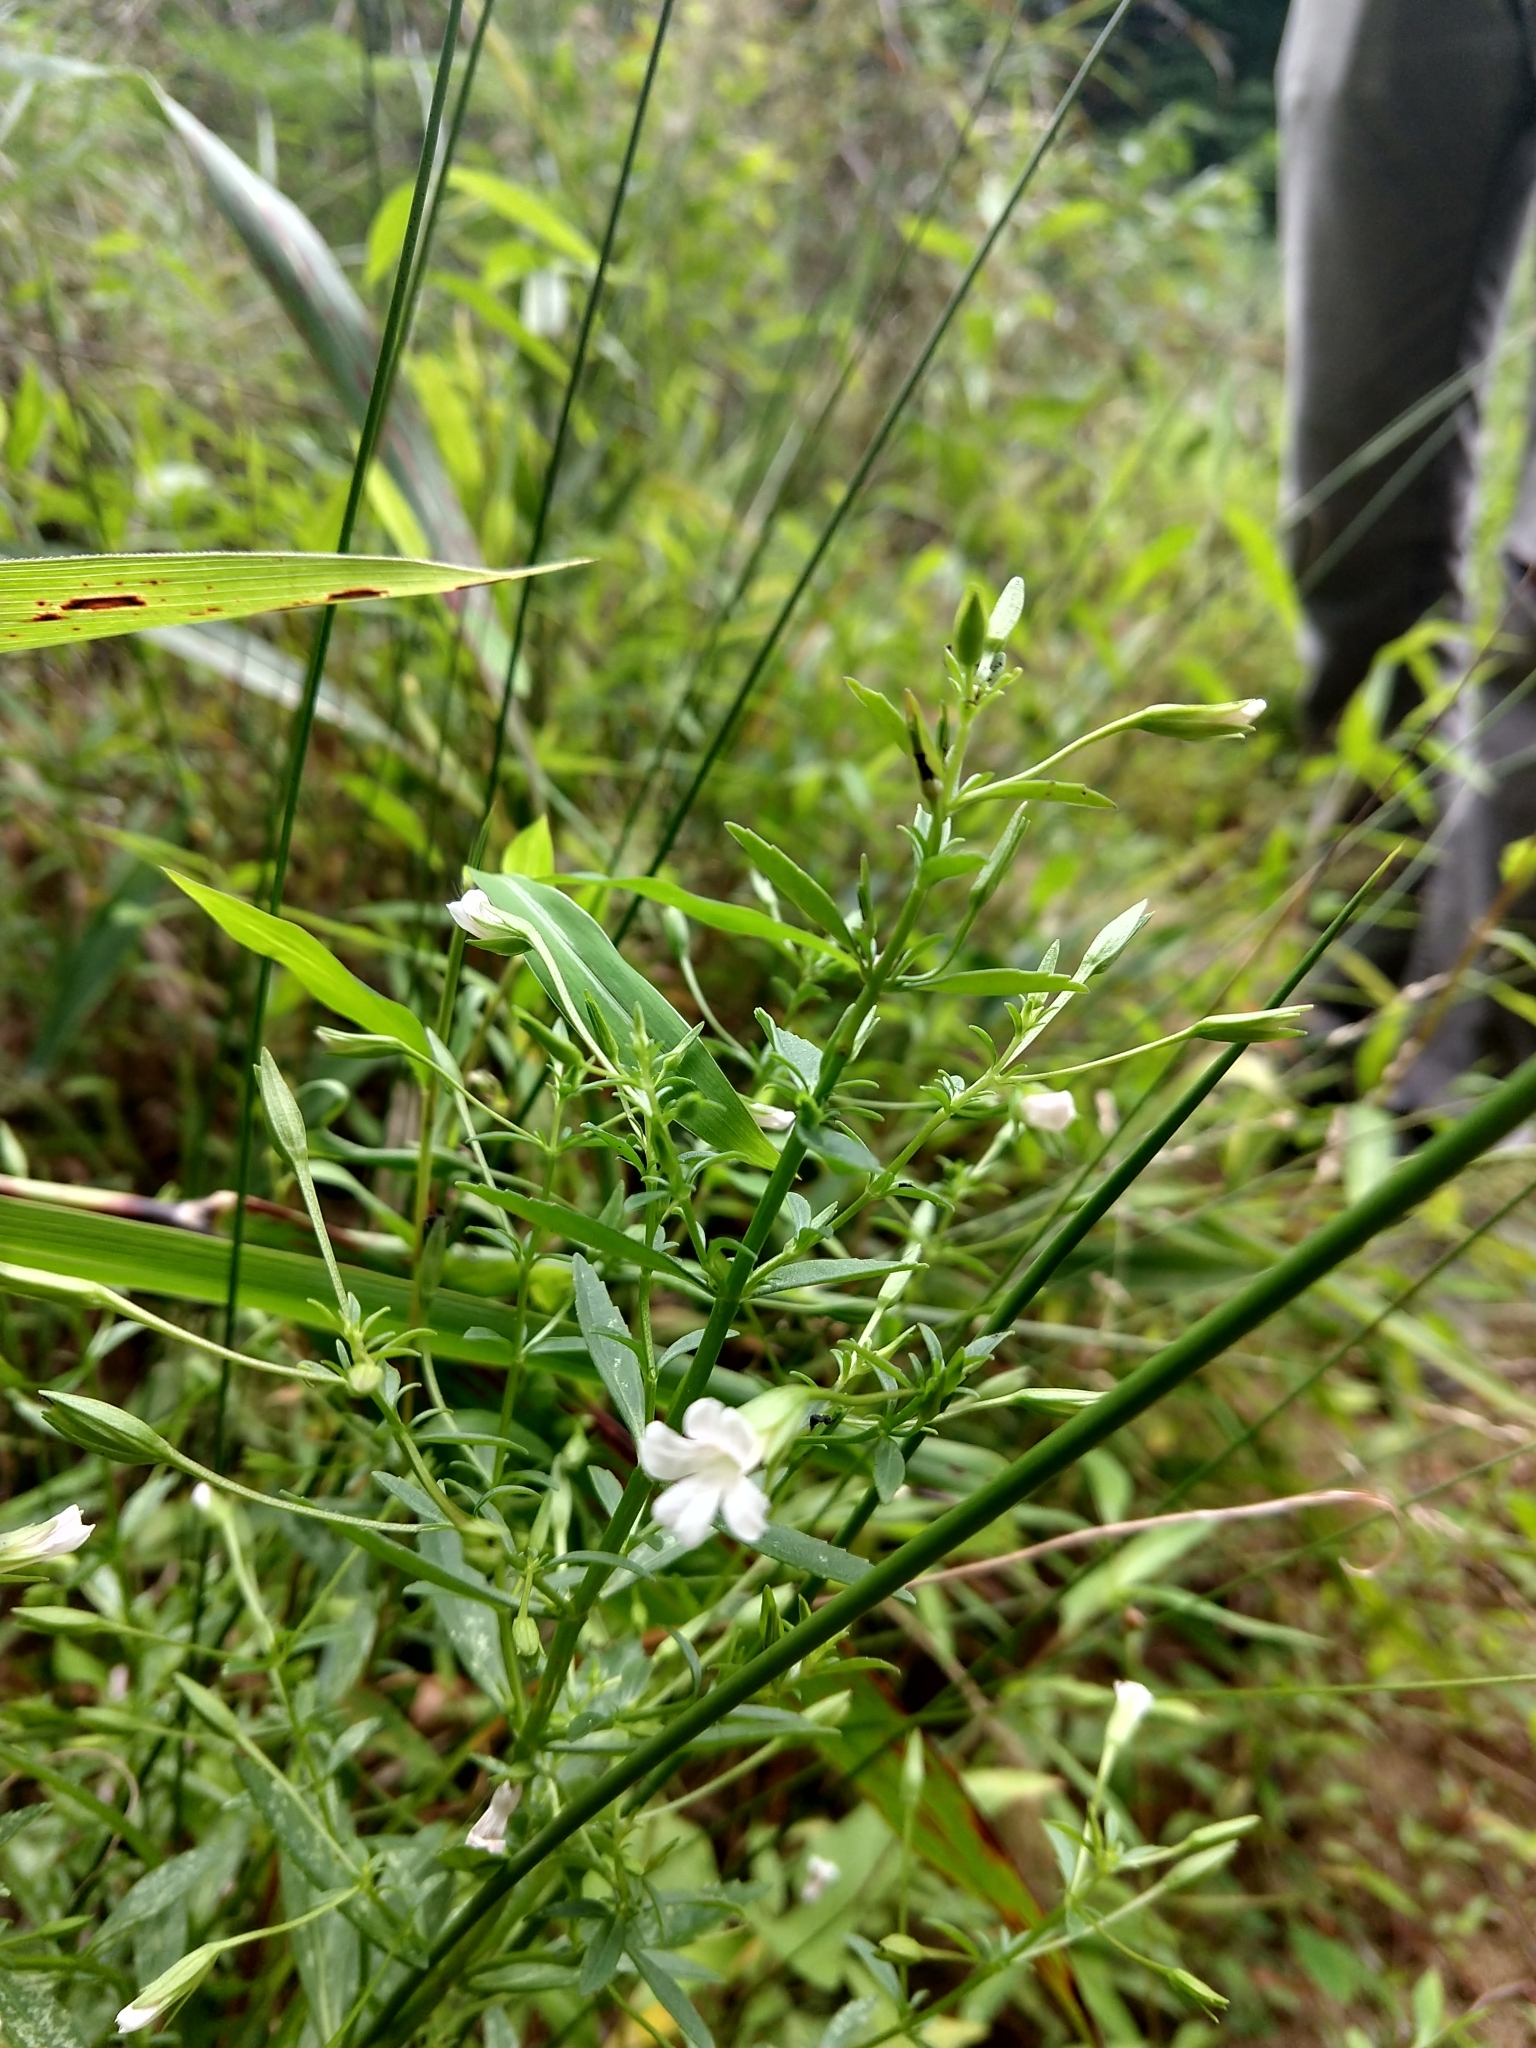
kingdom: Plantae
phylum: Tracheophyta
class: Magnoliopsida
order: Lamiales
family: Plantaginaceae
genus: Mecardonia
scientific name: Mecardonia acuminata
